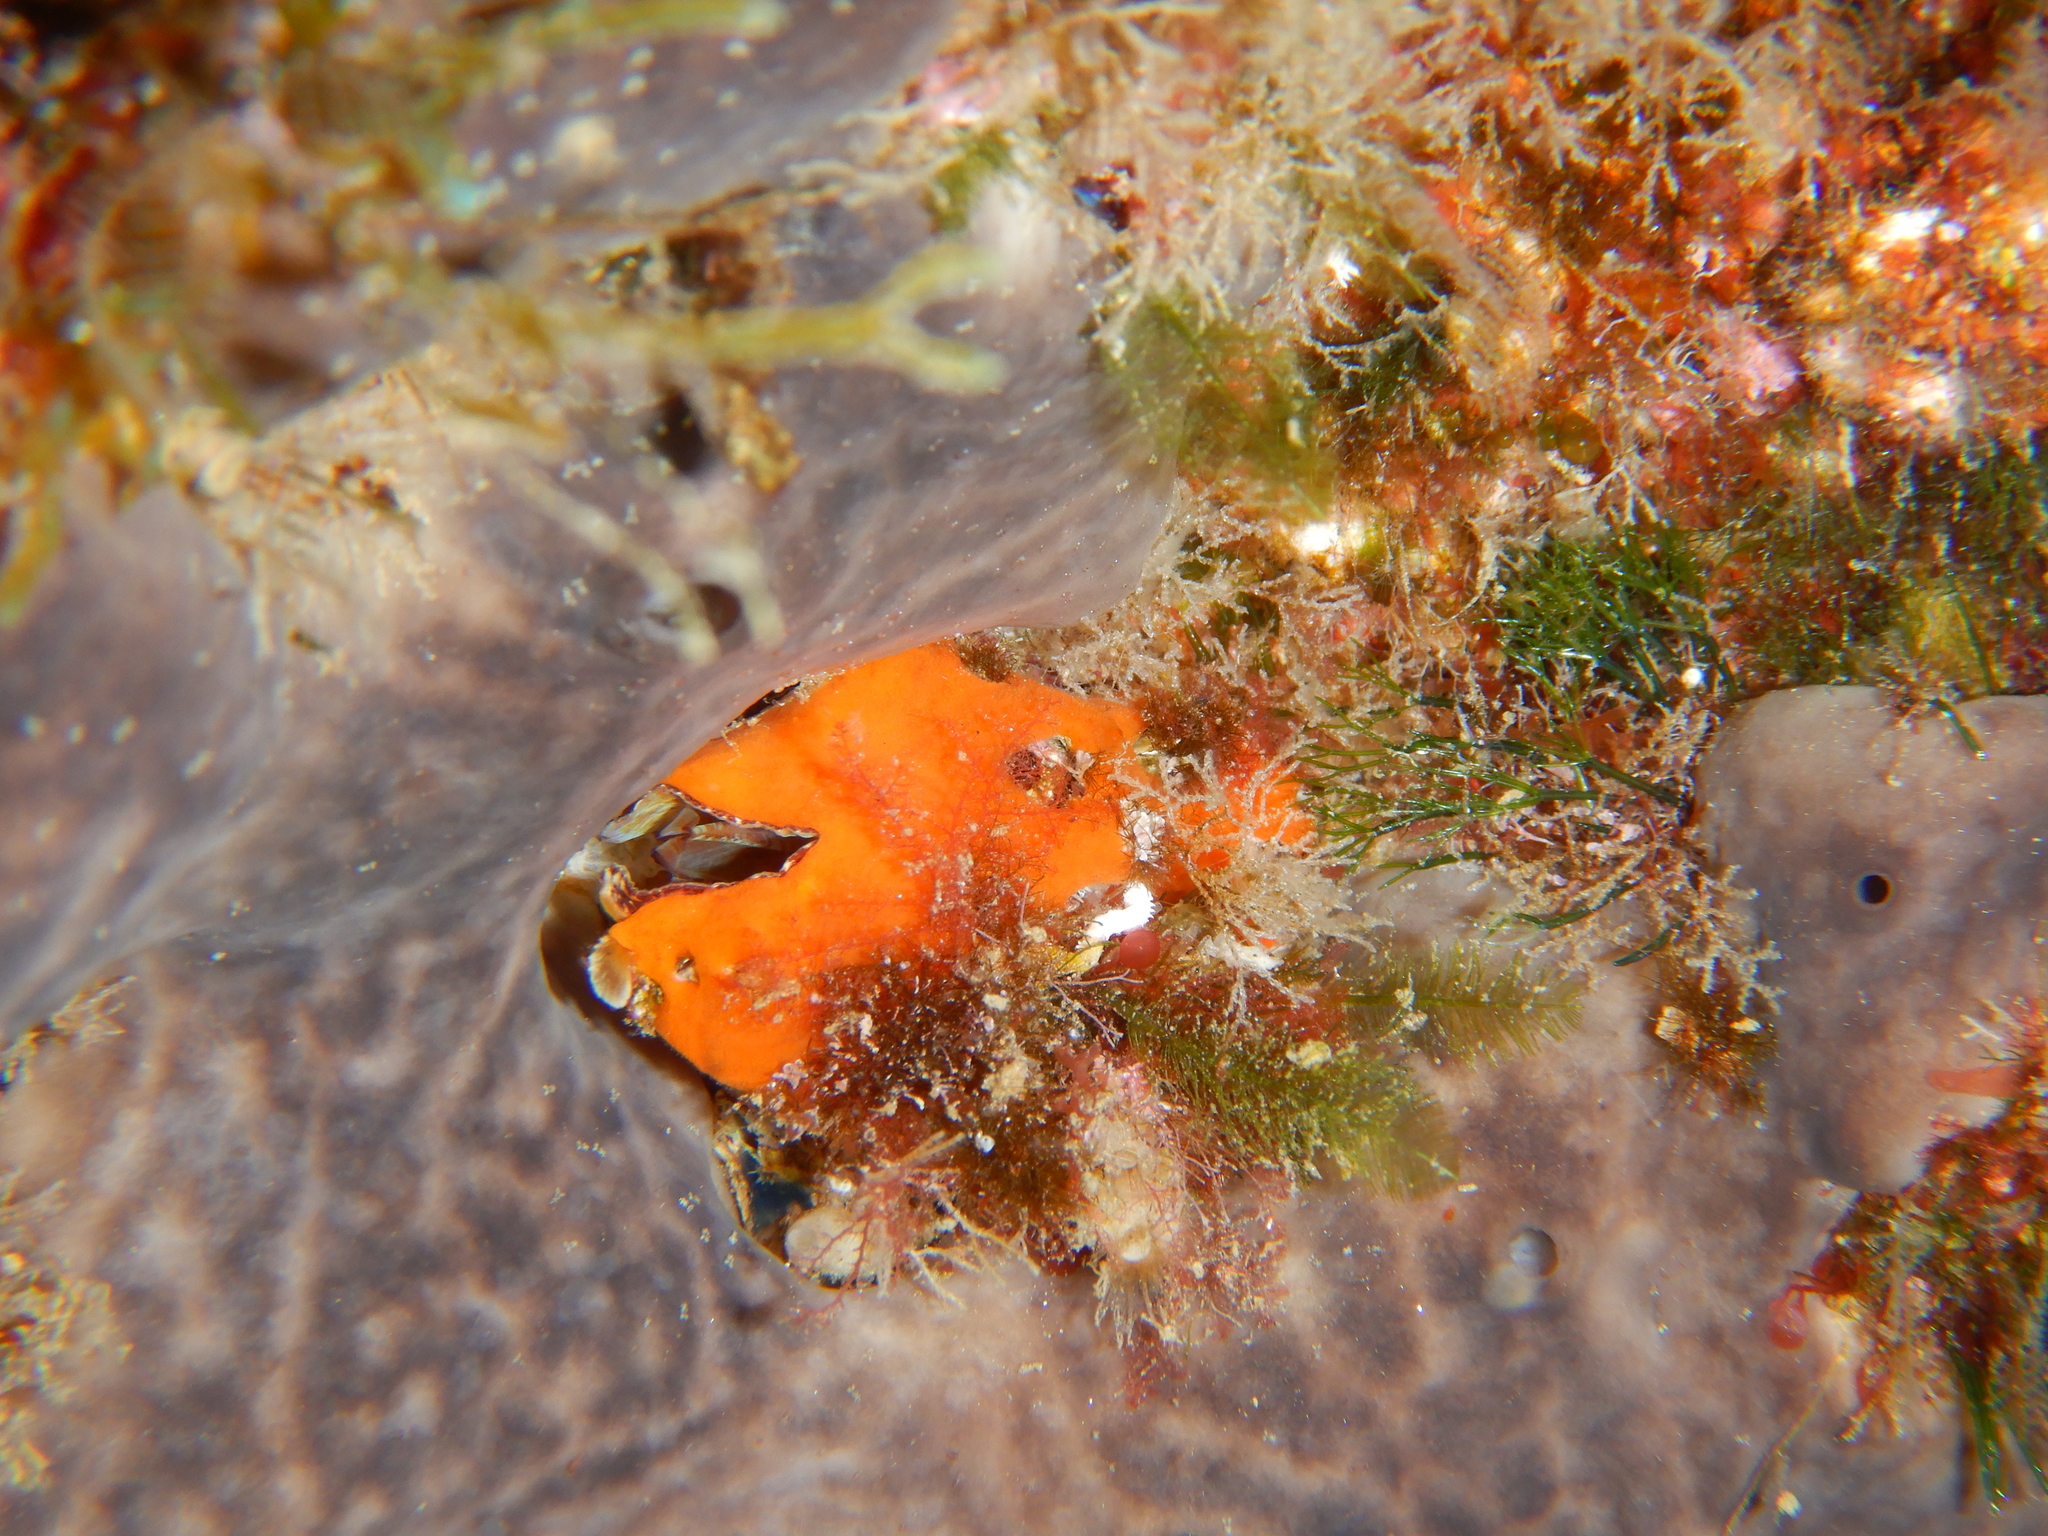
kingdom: Animalia
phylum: Mollusca
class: Bivalvia
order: Arcida
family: Arcidae
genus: Arca
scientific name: Arca noae
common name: Noah's arch
